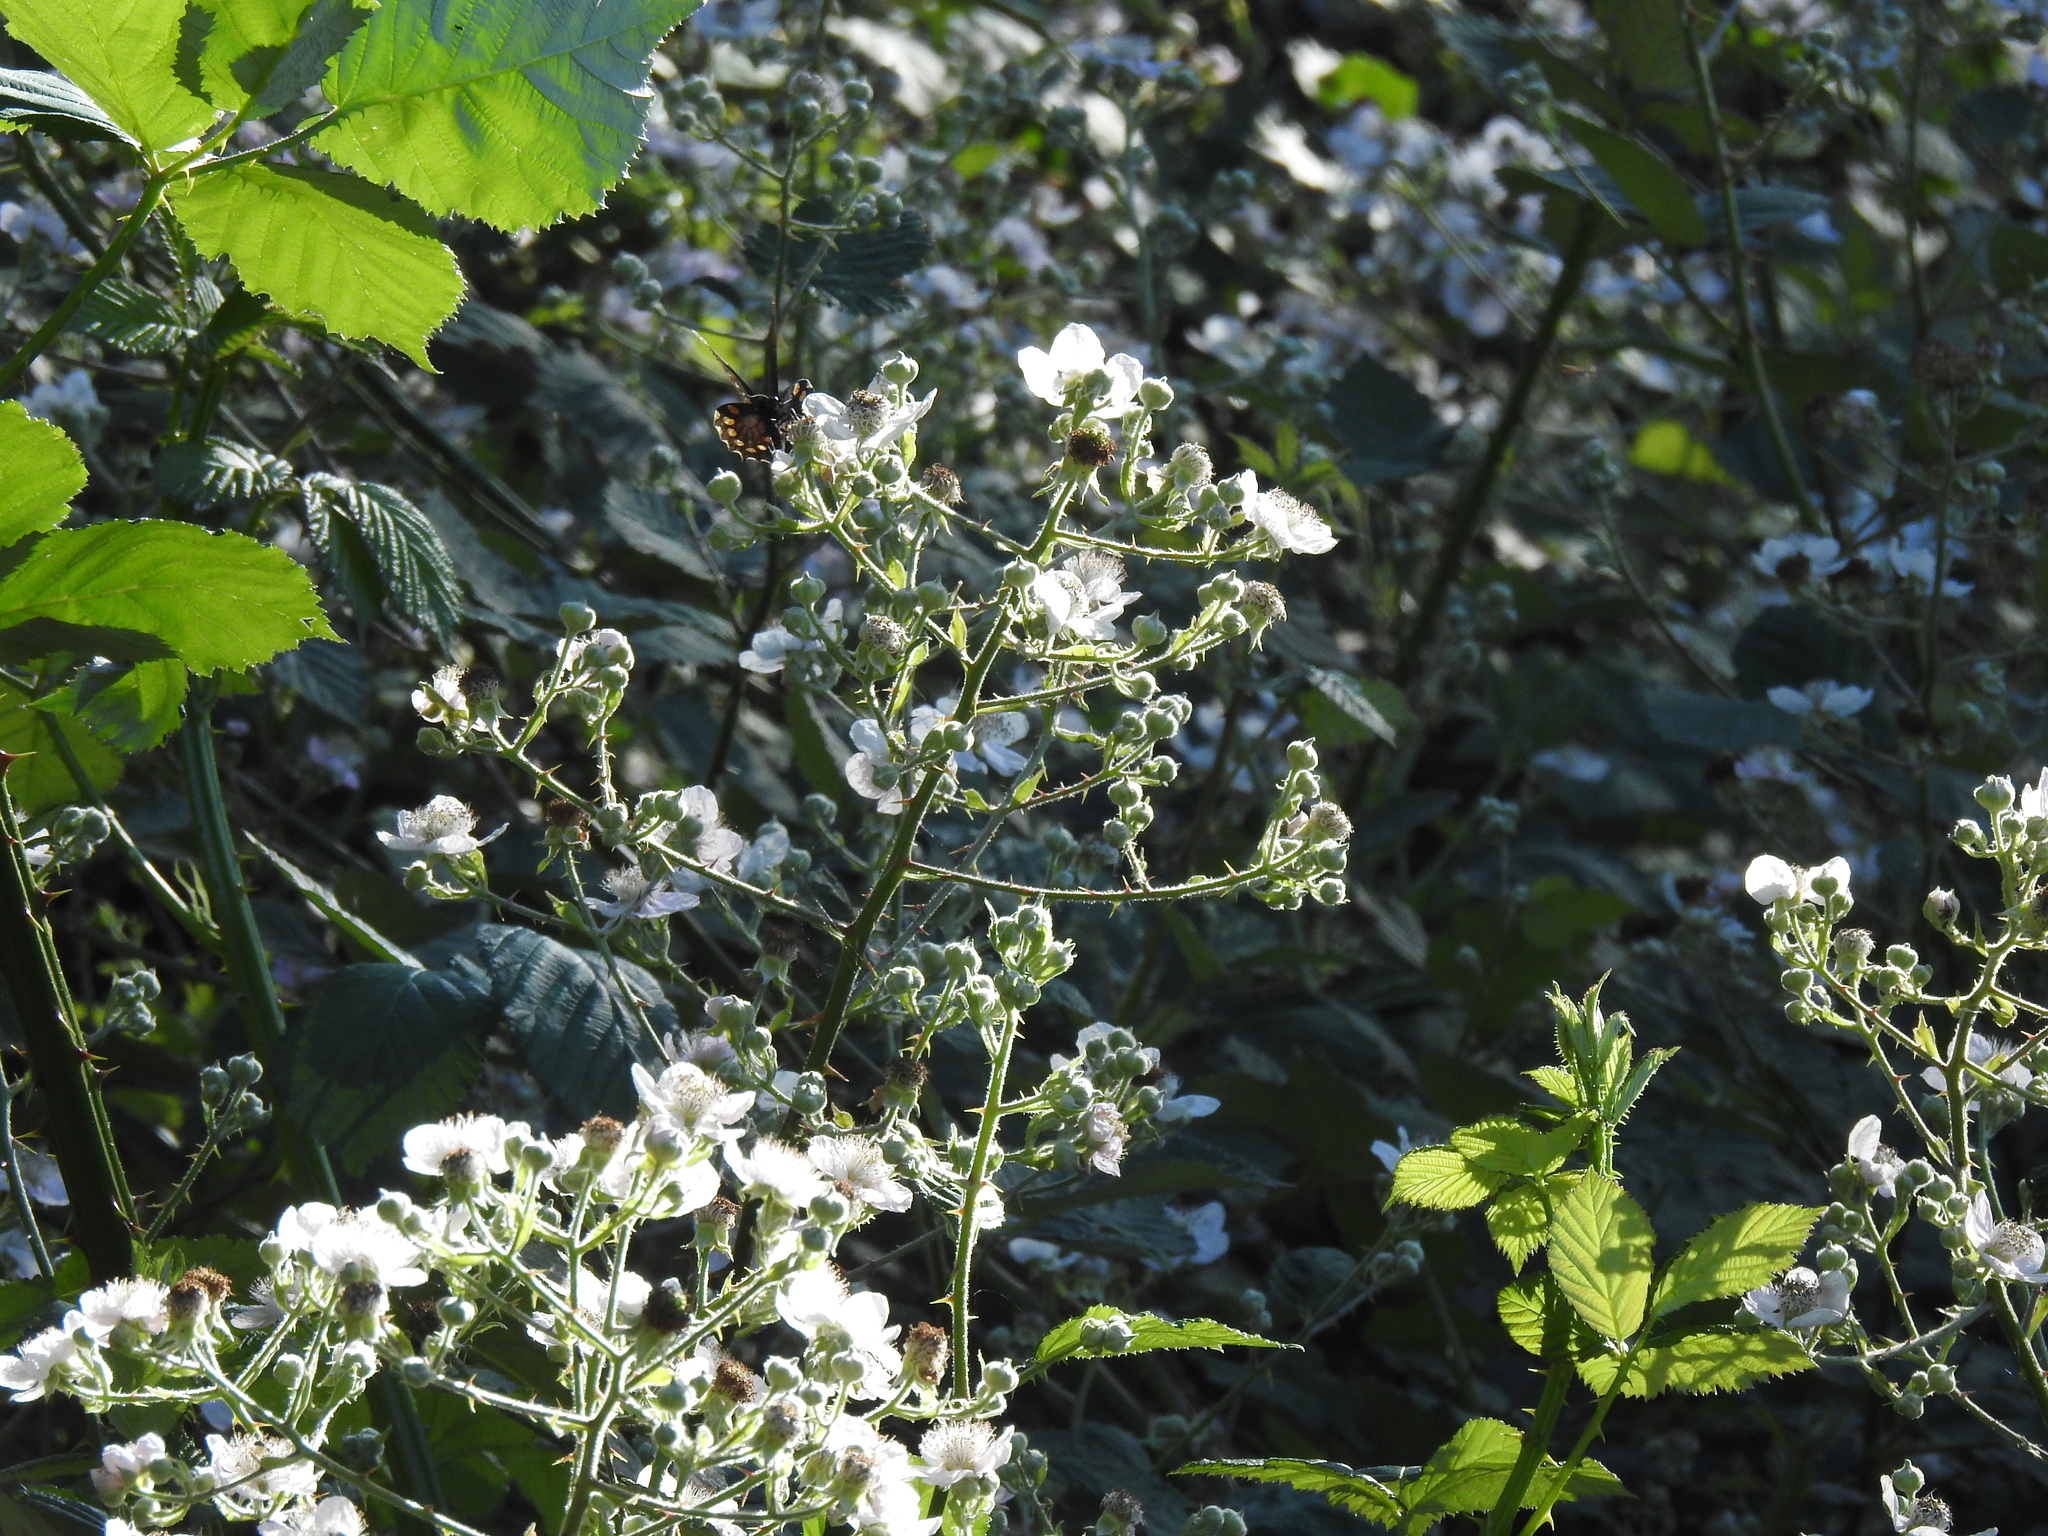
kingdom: Animalia
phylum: Arthropoda
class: Insecta
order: Lepidoptera
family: Papilionidae
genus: Battus
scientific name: Battus philenor
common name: Pipevine swallowtail
